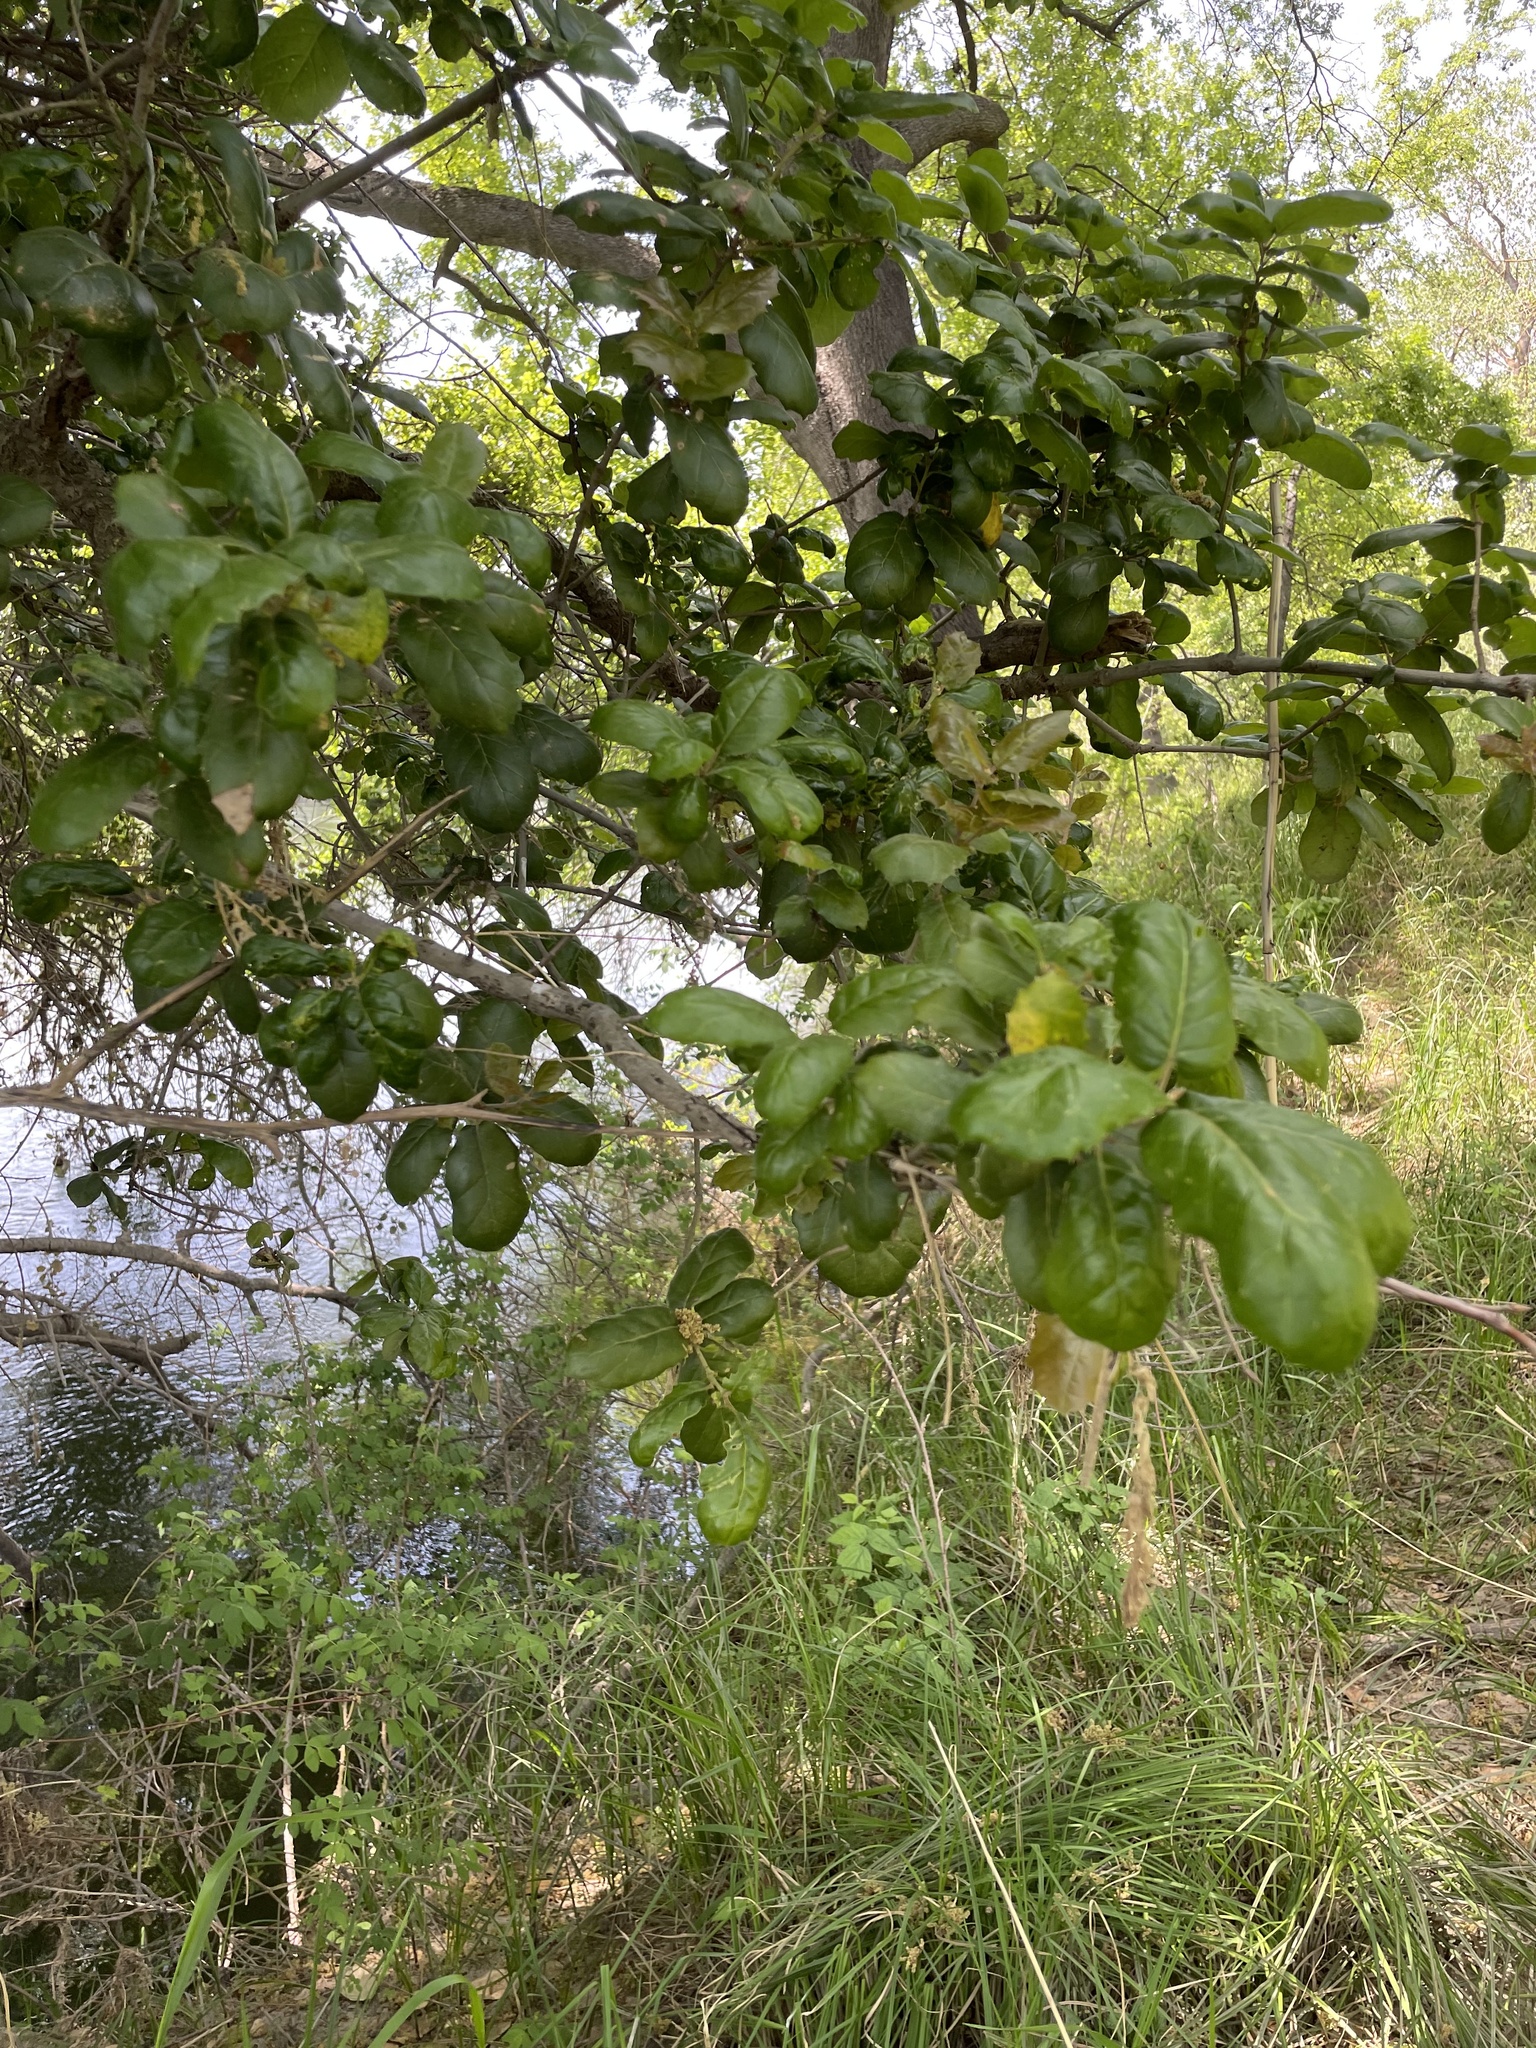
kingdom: Plantae
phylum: Tracheophyta
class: Magnoliopsida
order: Fagales
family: Fagaceae
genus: Quercus
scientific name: Quercus agrifolia
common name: California live oak
